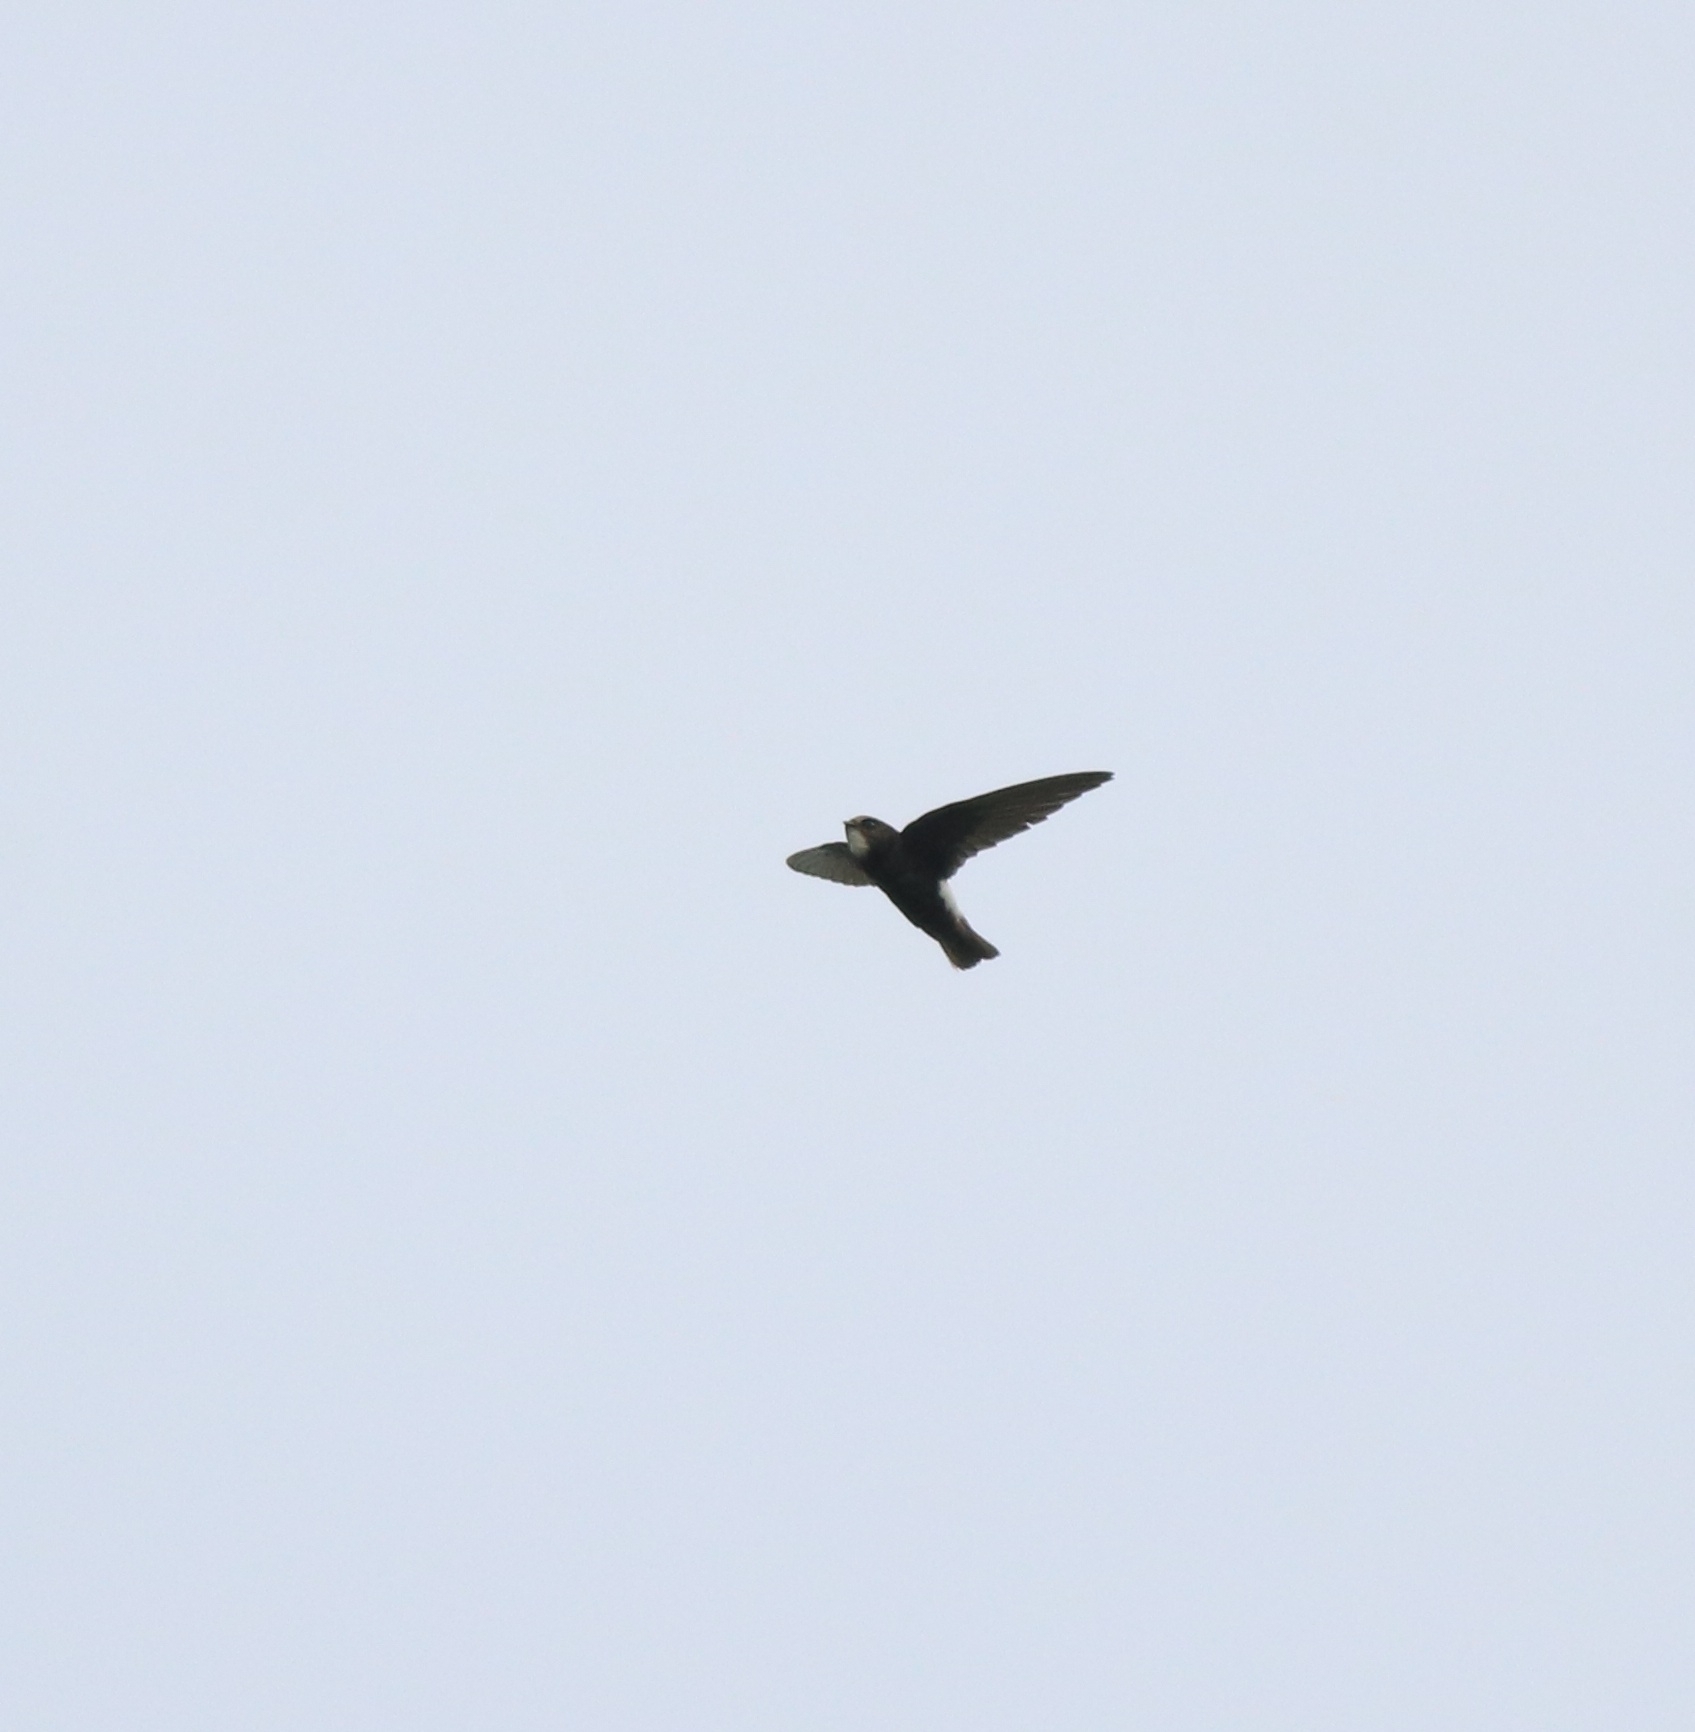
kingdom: Animalia
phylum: Chordata
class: Aves
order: Apodiformes
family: Apodidae
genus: Apus
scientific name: Apus affinis
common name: Little swift
